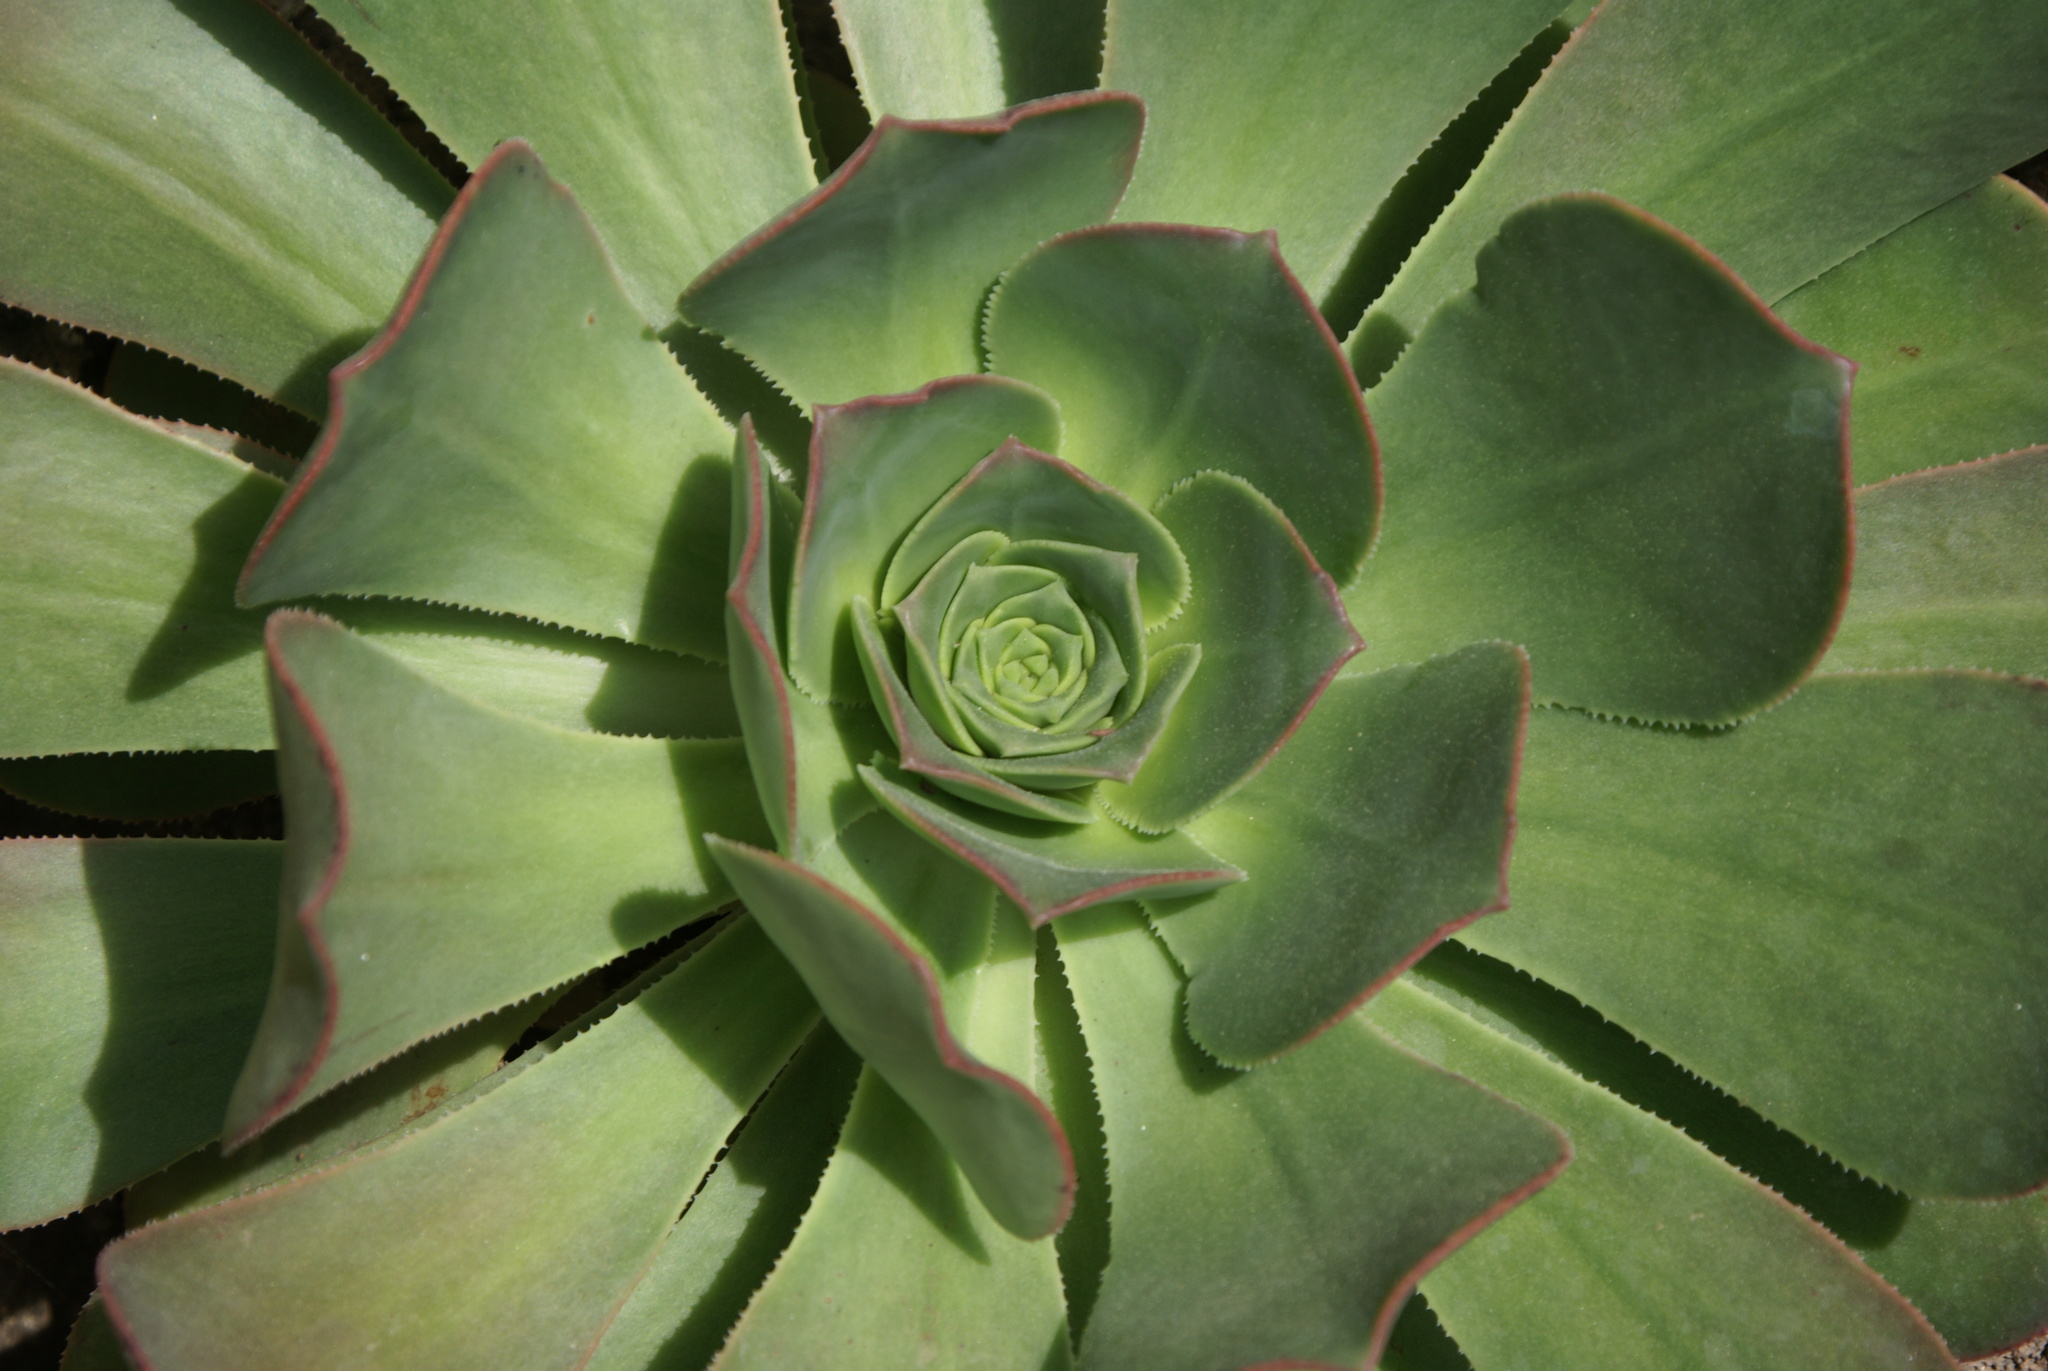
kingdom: Plantae
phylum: Tracheophyta
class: Magnoliopsida
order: Saxifragales
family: Crassulaceae
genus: Aeonium
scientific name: Aeonium hierrense
